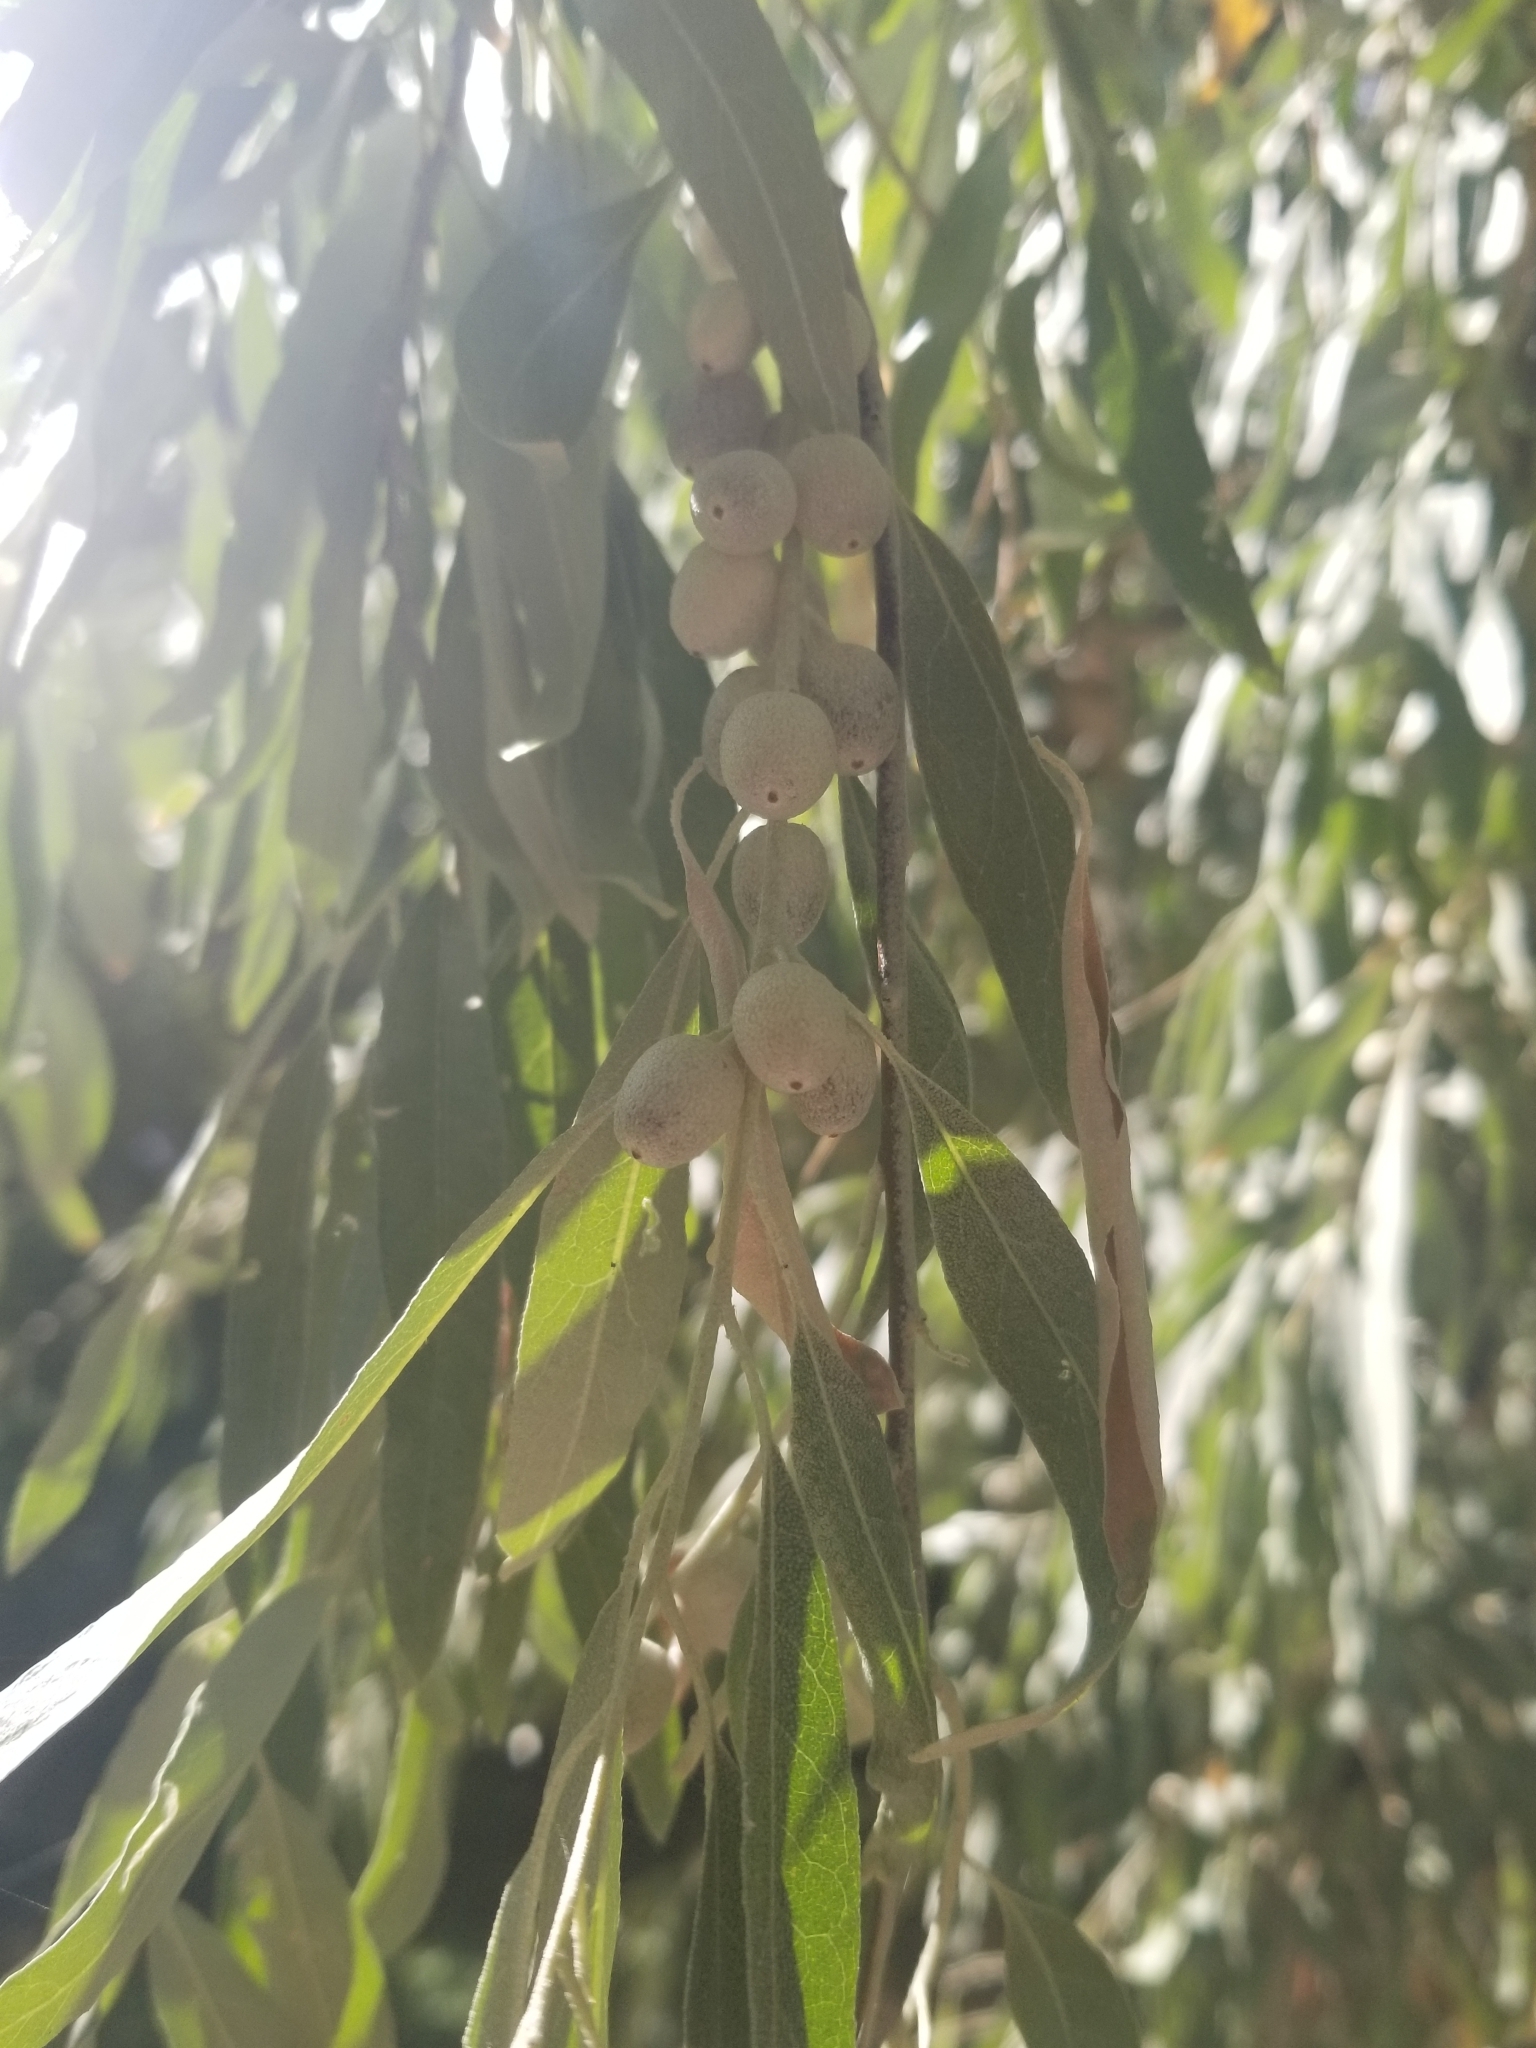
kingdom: Plantae
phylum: Tracheophyta
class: Magnoliopsida
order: Rosales
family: Elaeagnaceae
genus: Elaeagnus
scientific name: Elaeagnus angustifolia
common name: Russian olive
